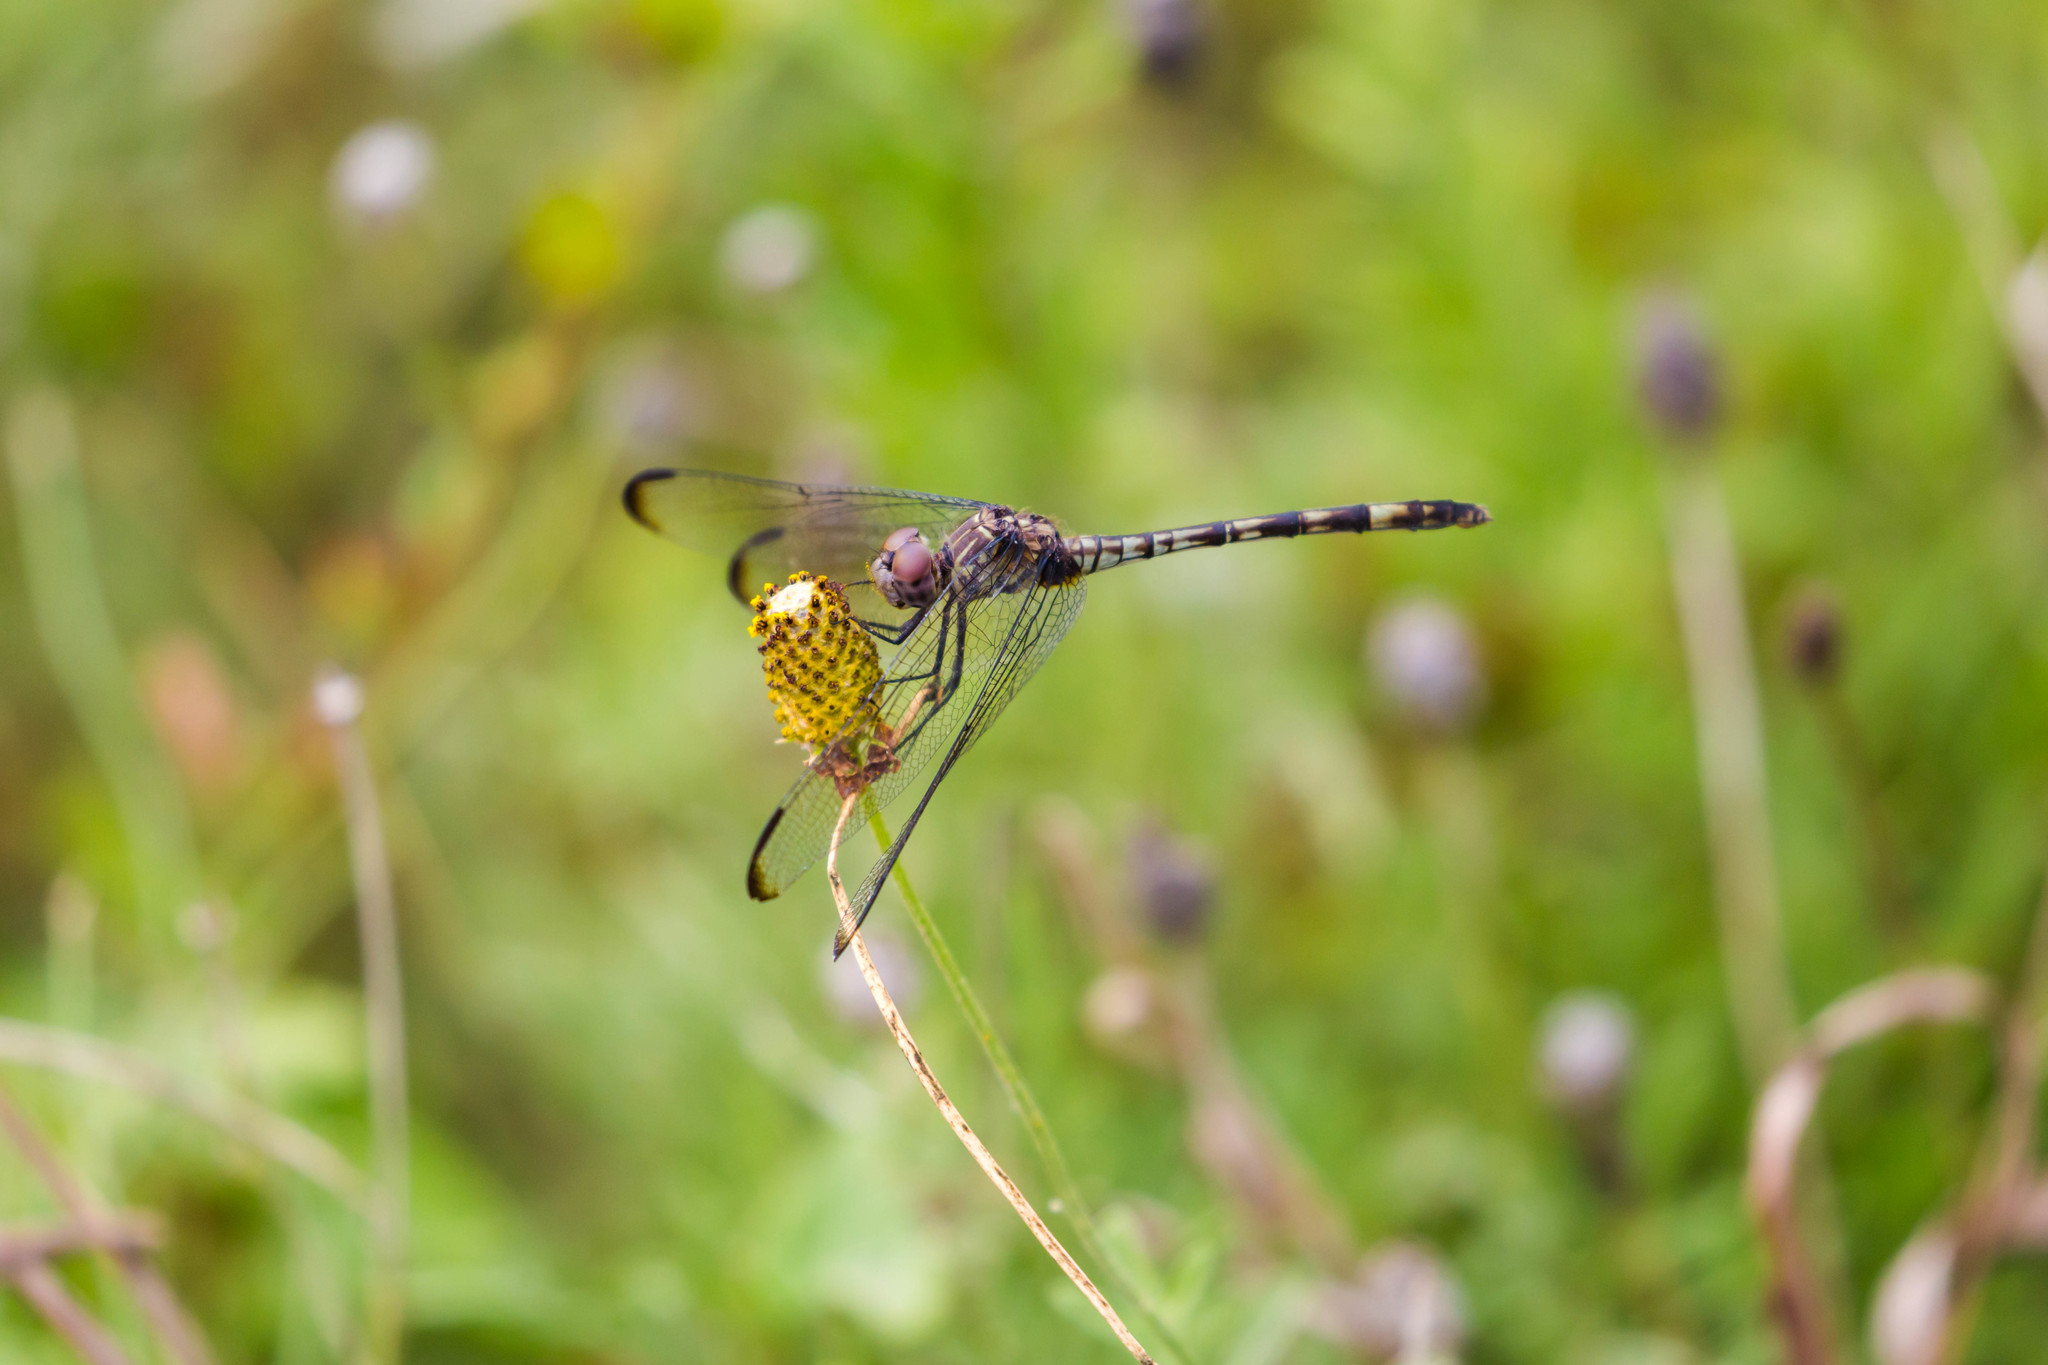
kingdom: Animalia
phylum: Arthropoda
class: Insecta
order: Odonata
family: Libellulidae
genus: Dythemis
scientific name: Dythemis nigrescens
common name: Black setwing
